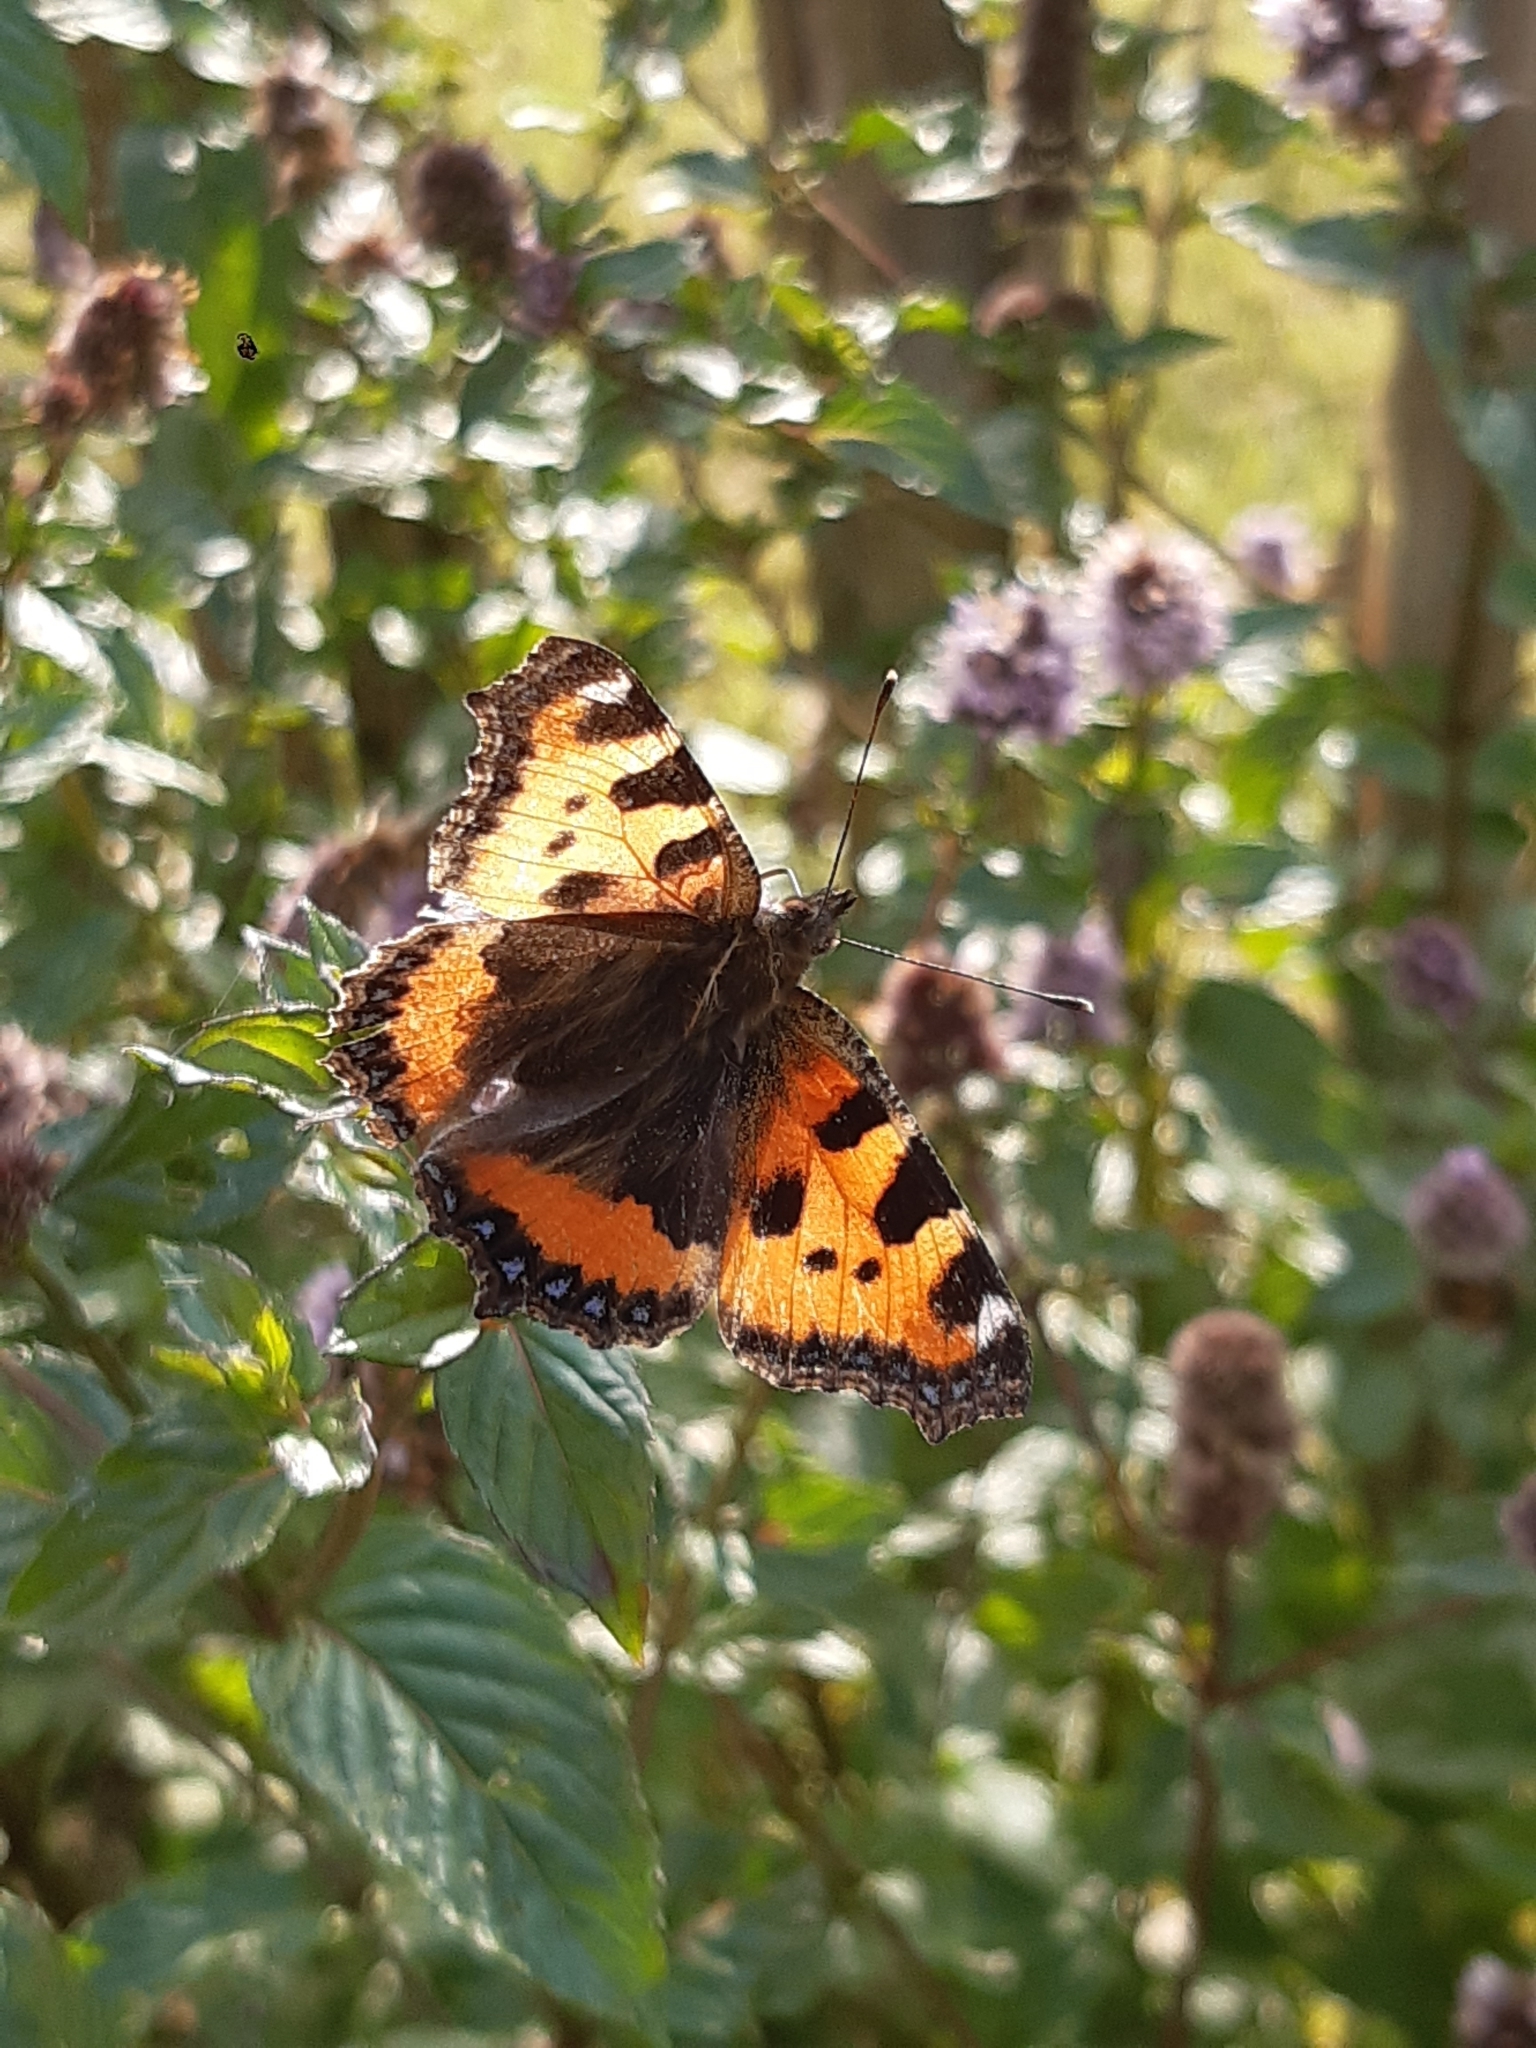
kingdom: Animalia
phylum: Arthropoda
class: Insecta
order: Lepidoptera
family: Nymphalidae
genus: Aglais
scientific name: Aglais urticae
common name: Small tortoiseshell
